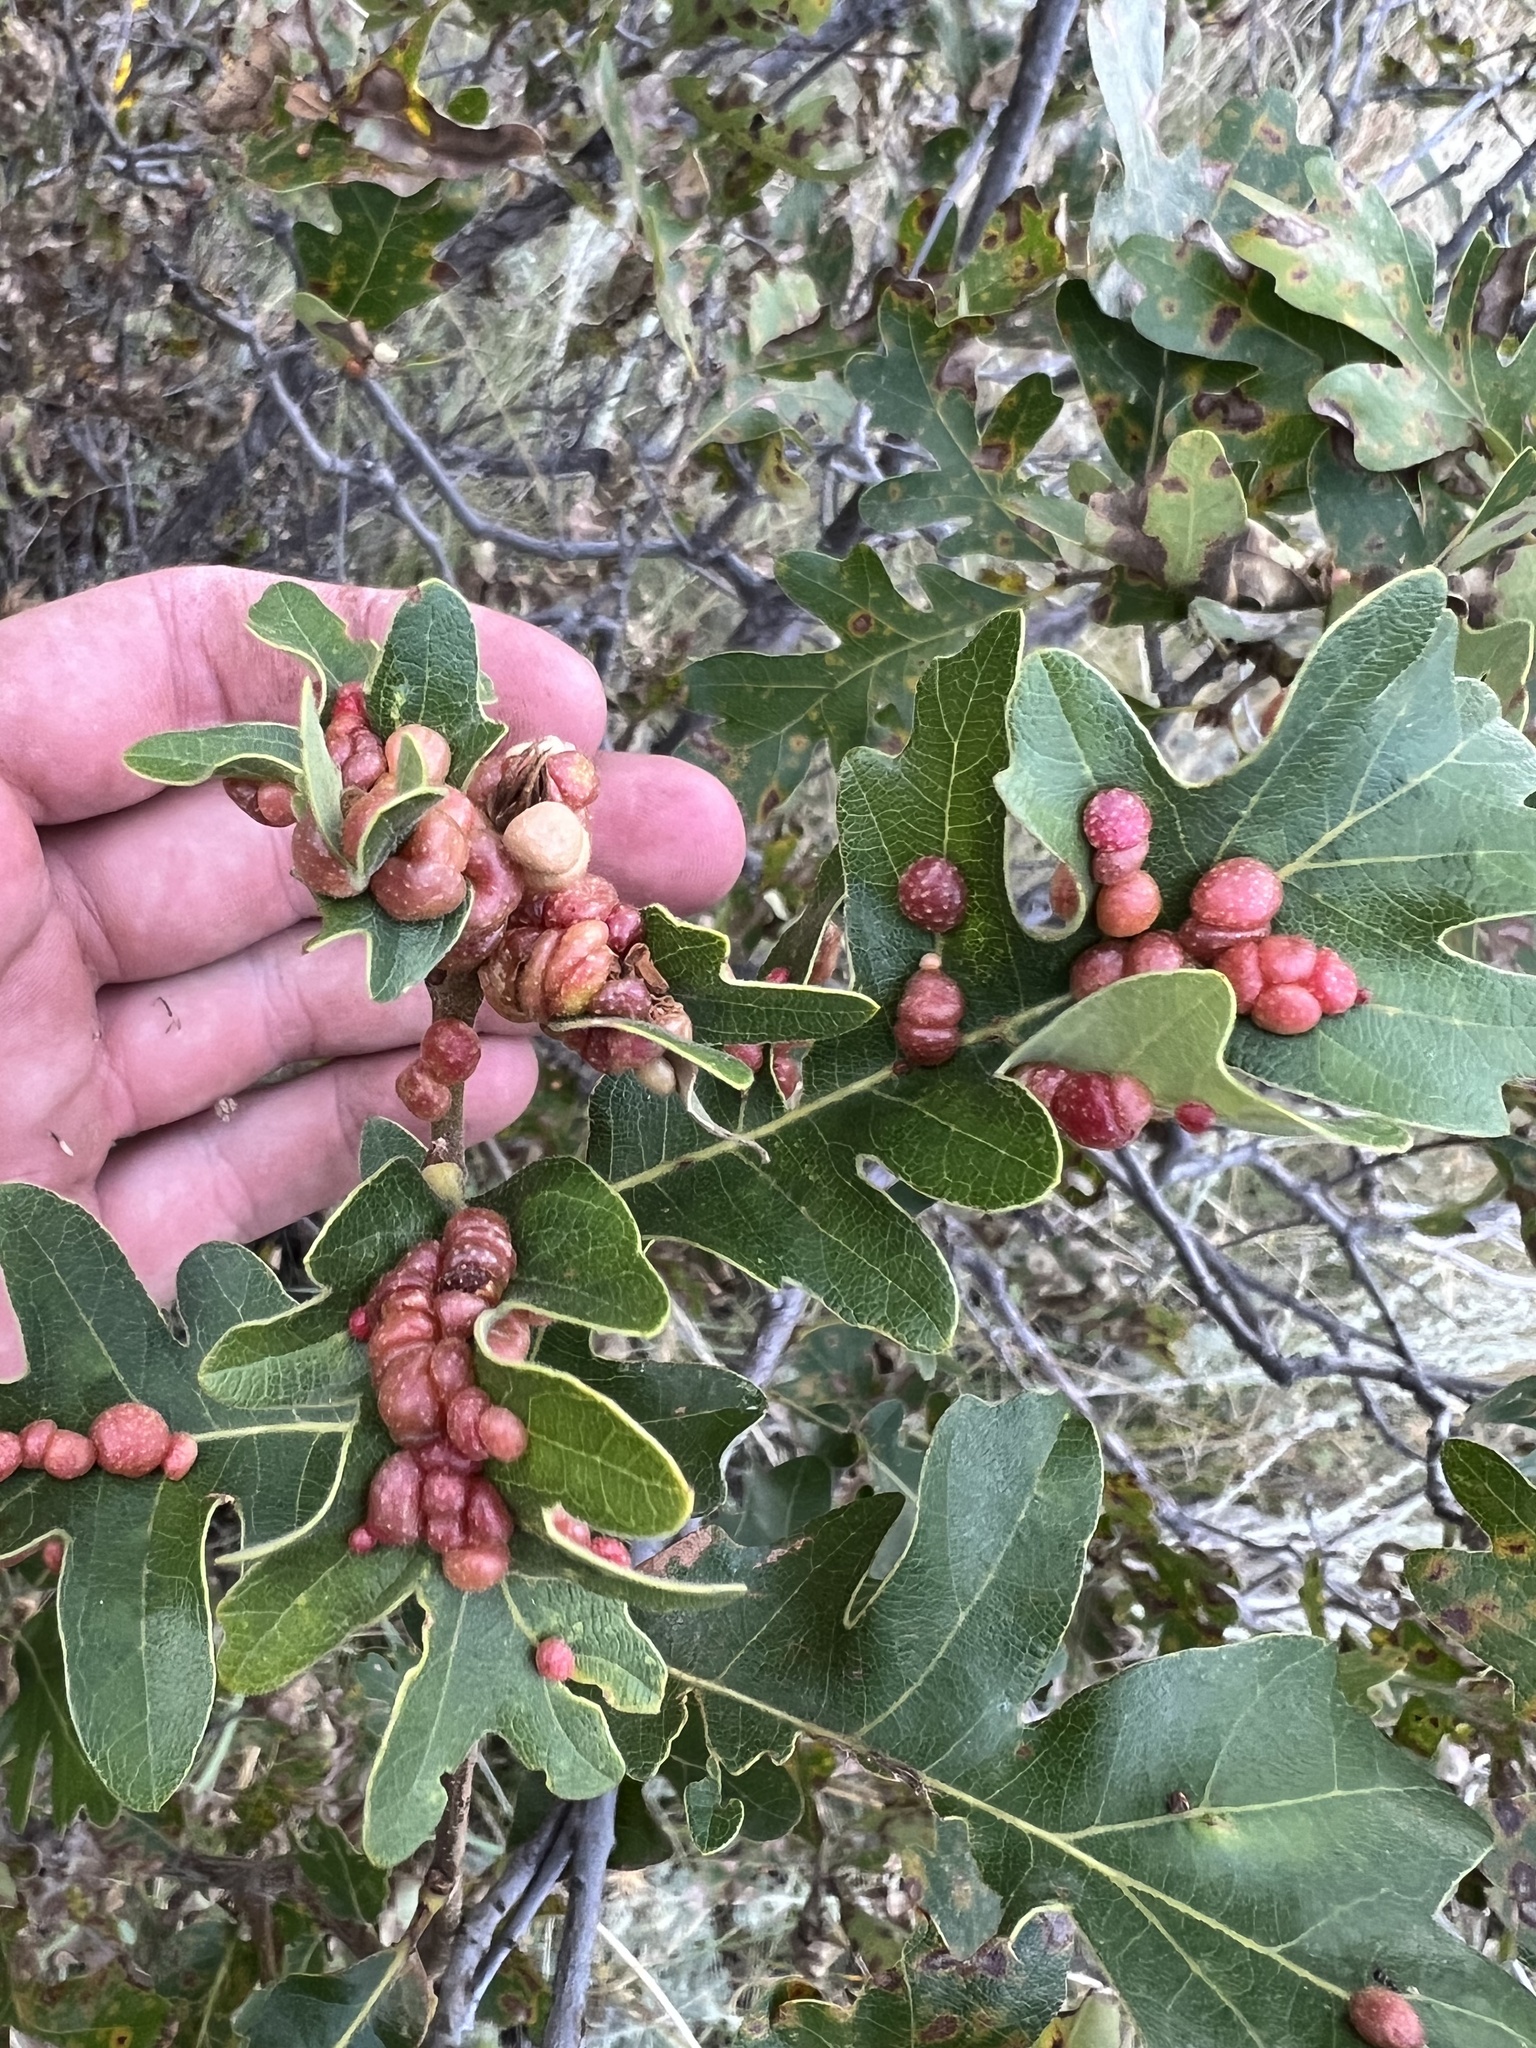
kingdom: Animalia
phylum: Arthropoda
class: Insecta
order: Hymenoptera
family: Cynipidae
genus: Trigonaspis
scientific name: Trigonaspis
